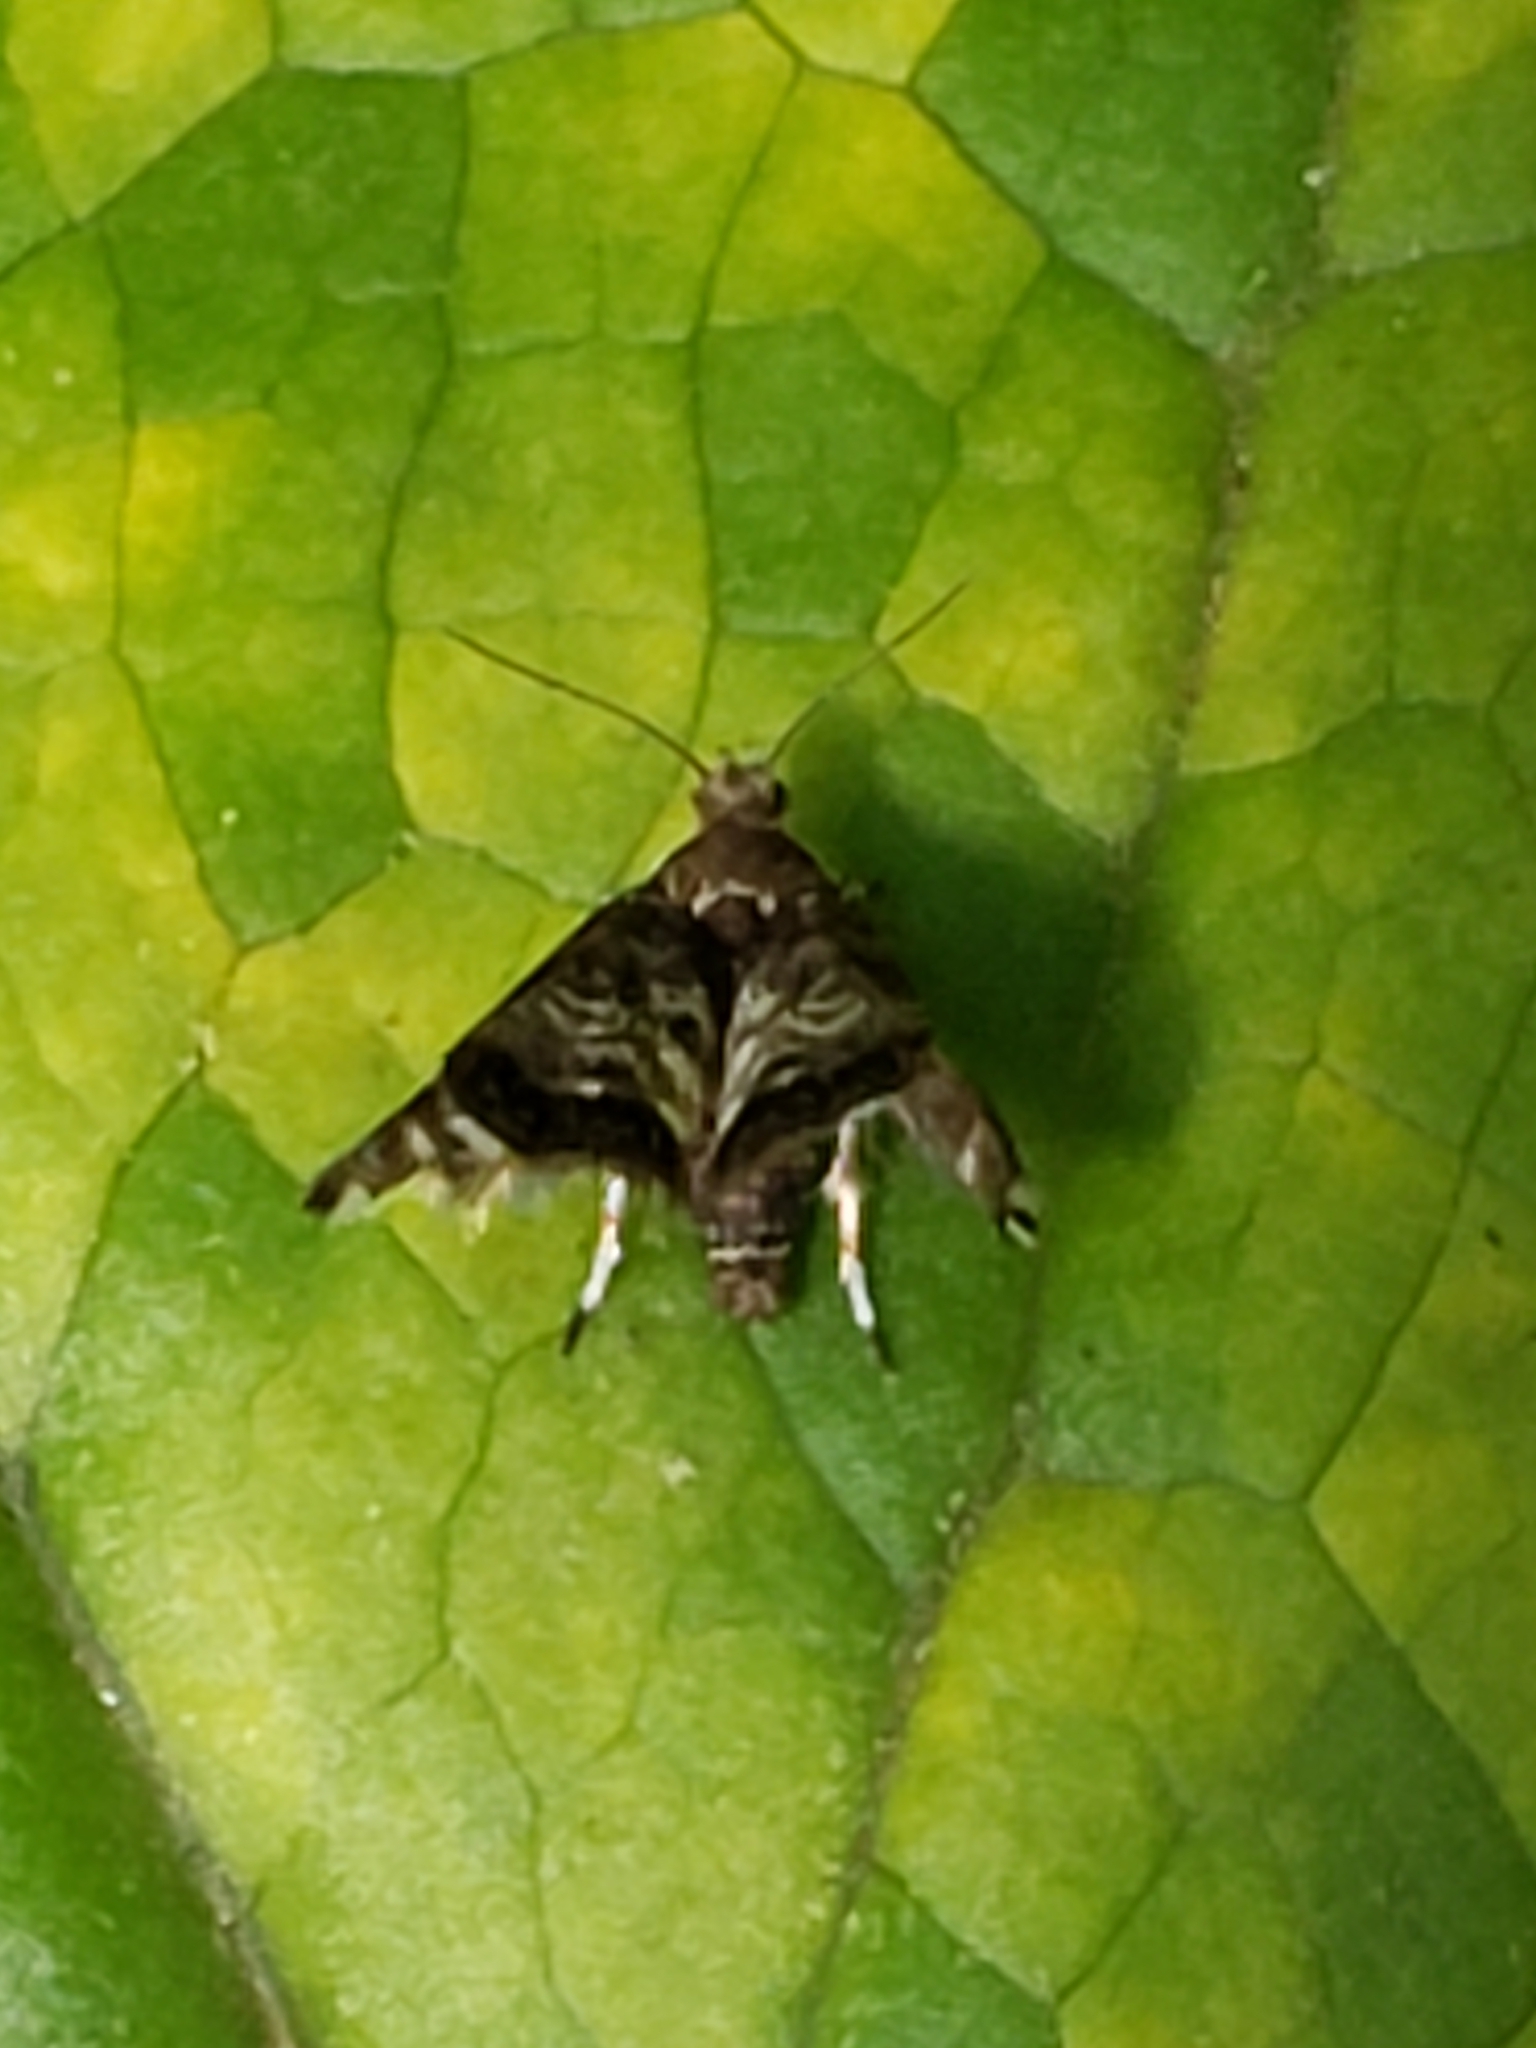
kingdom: Animalia
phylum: Arthropoda
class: Insecta
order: Lepidoptera
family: Choreutidae
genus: Brenthia
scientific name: Brenthia pavonacella
